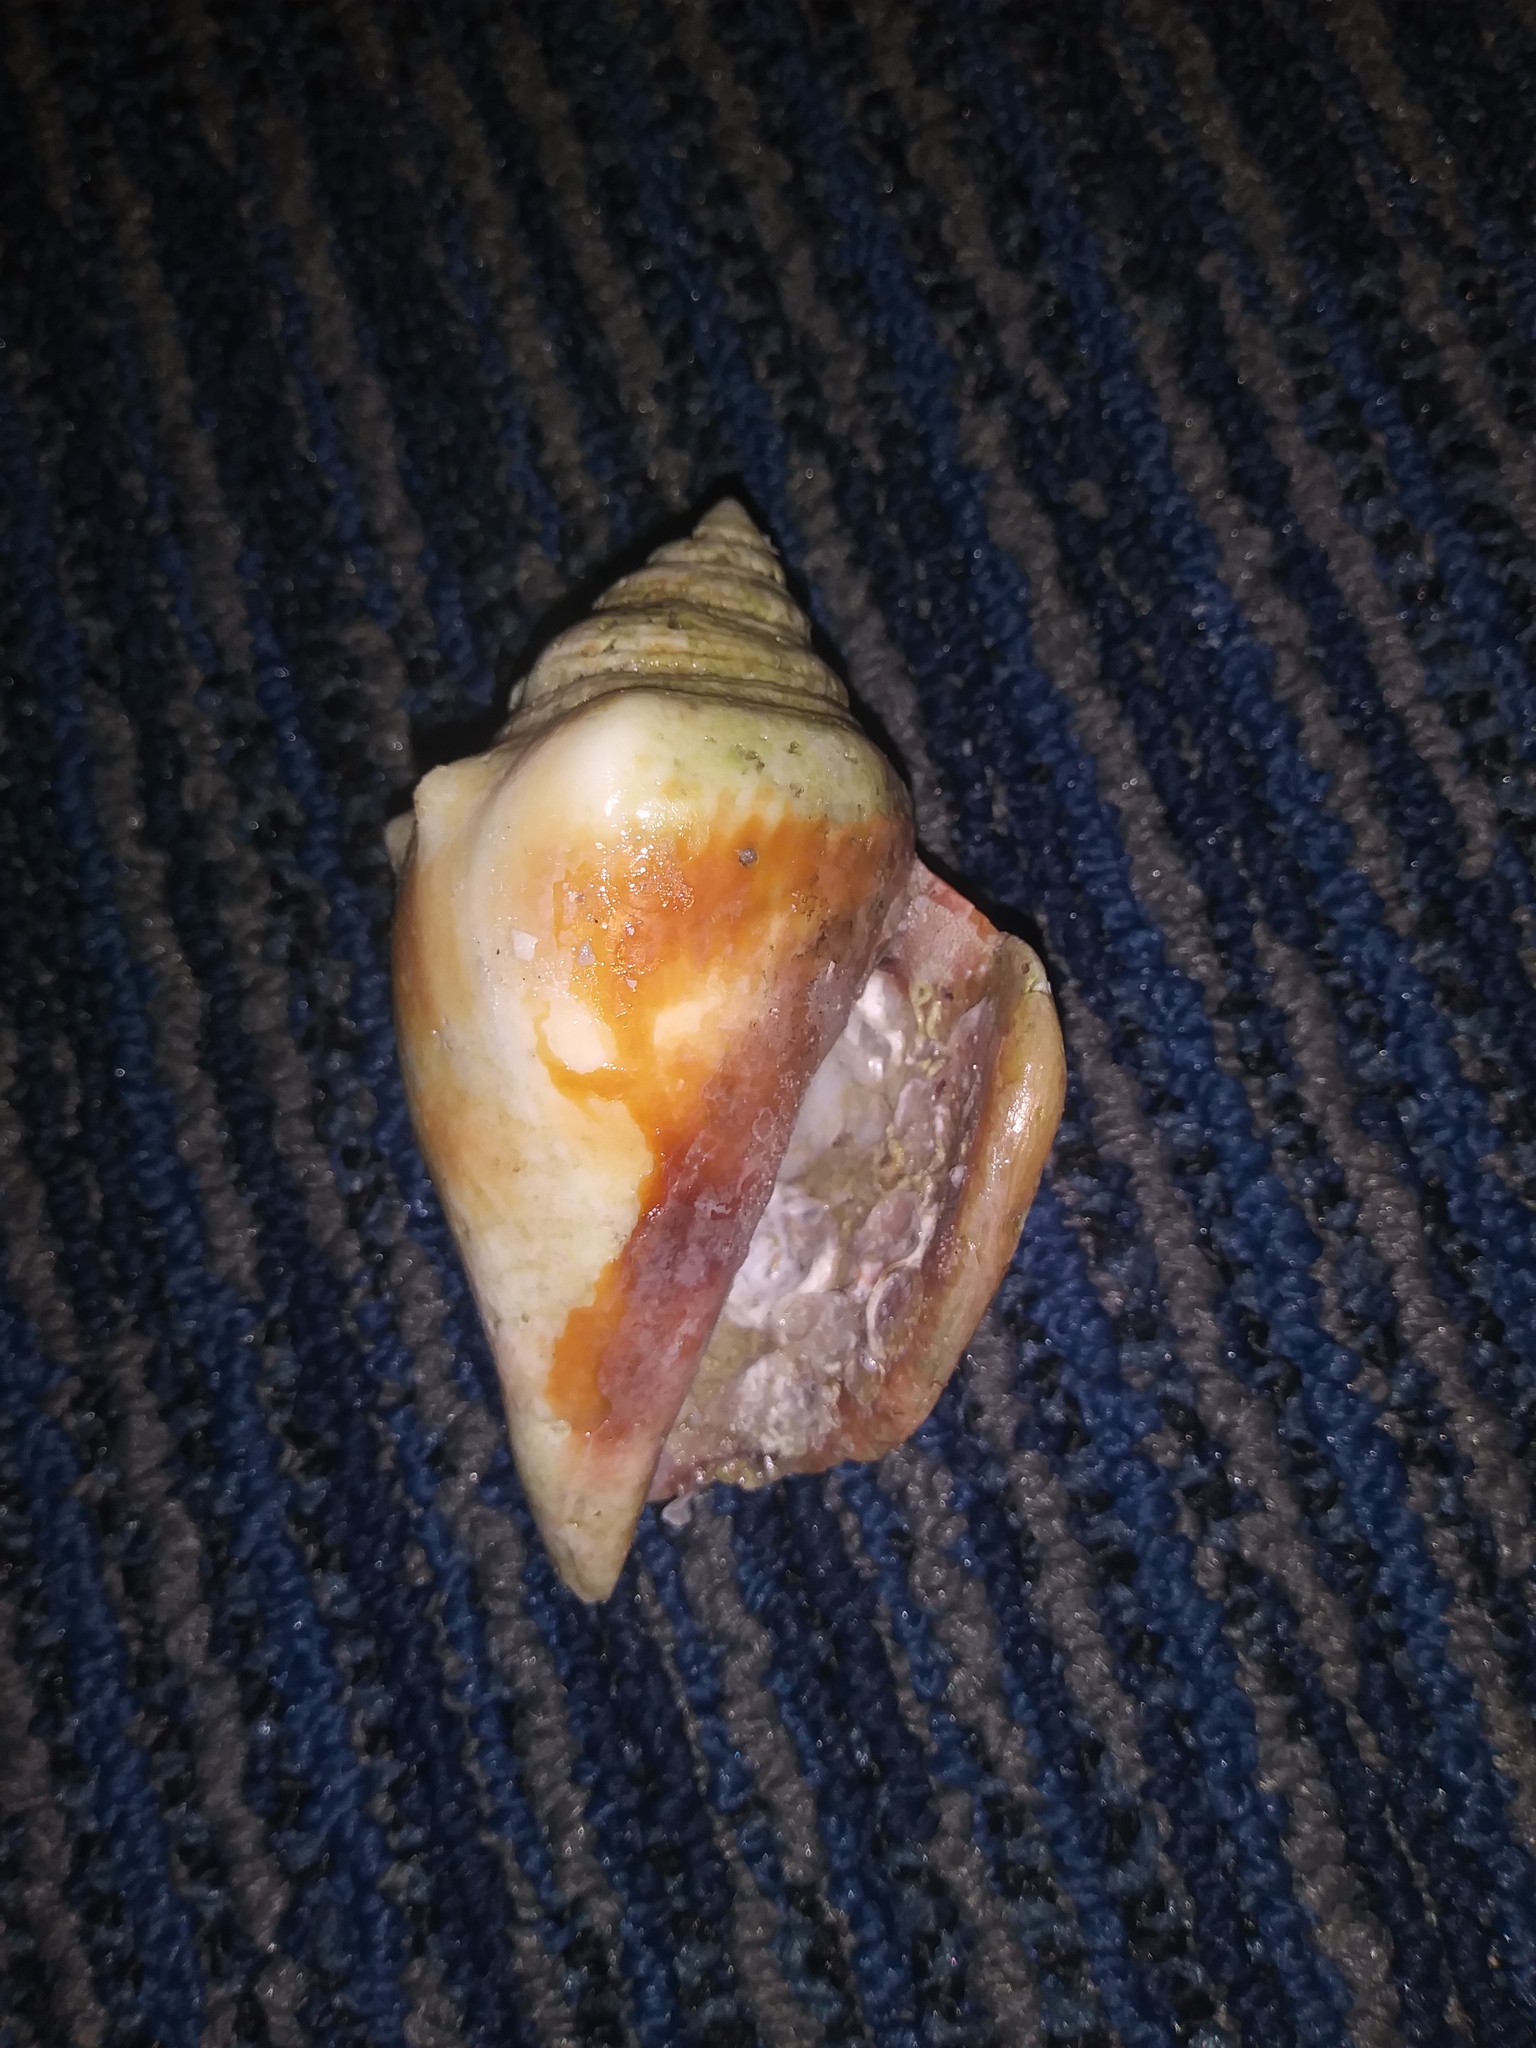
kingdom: Animalia
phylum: Mollusca
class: Gastropoda
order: Littorinimorpha
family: Strombidae
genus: Strombus
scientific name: Strombus alatus
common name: Florida fighting conch
